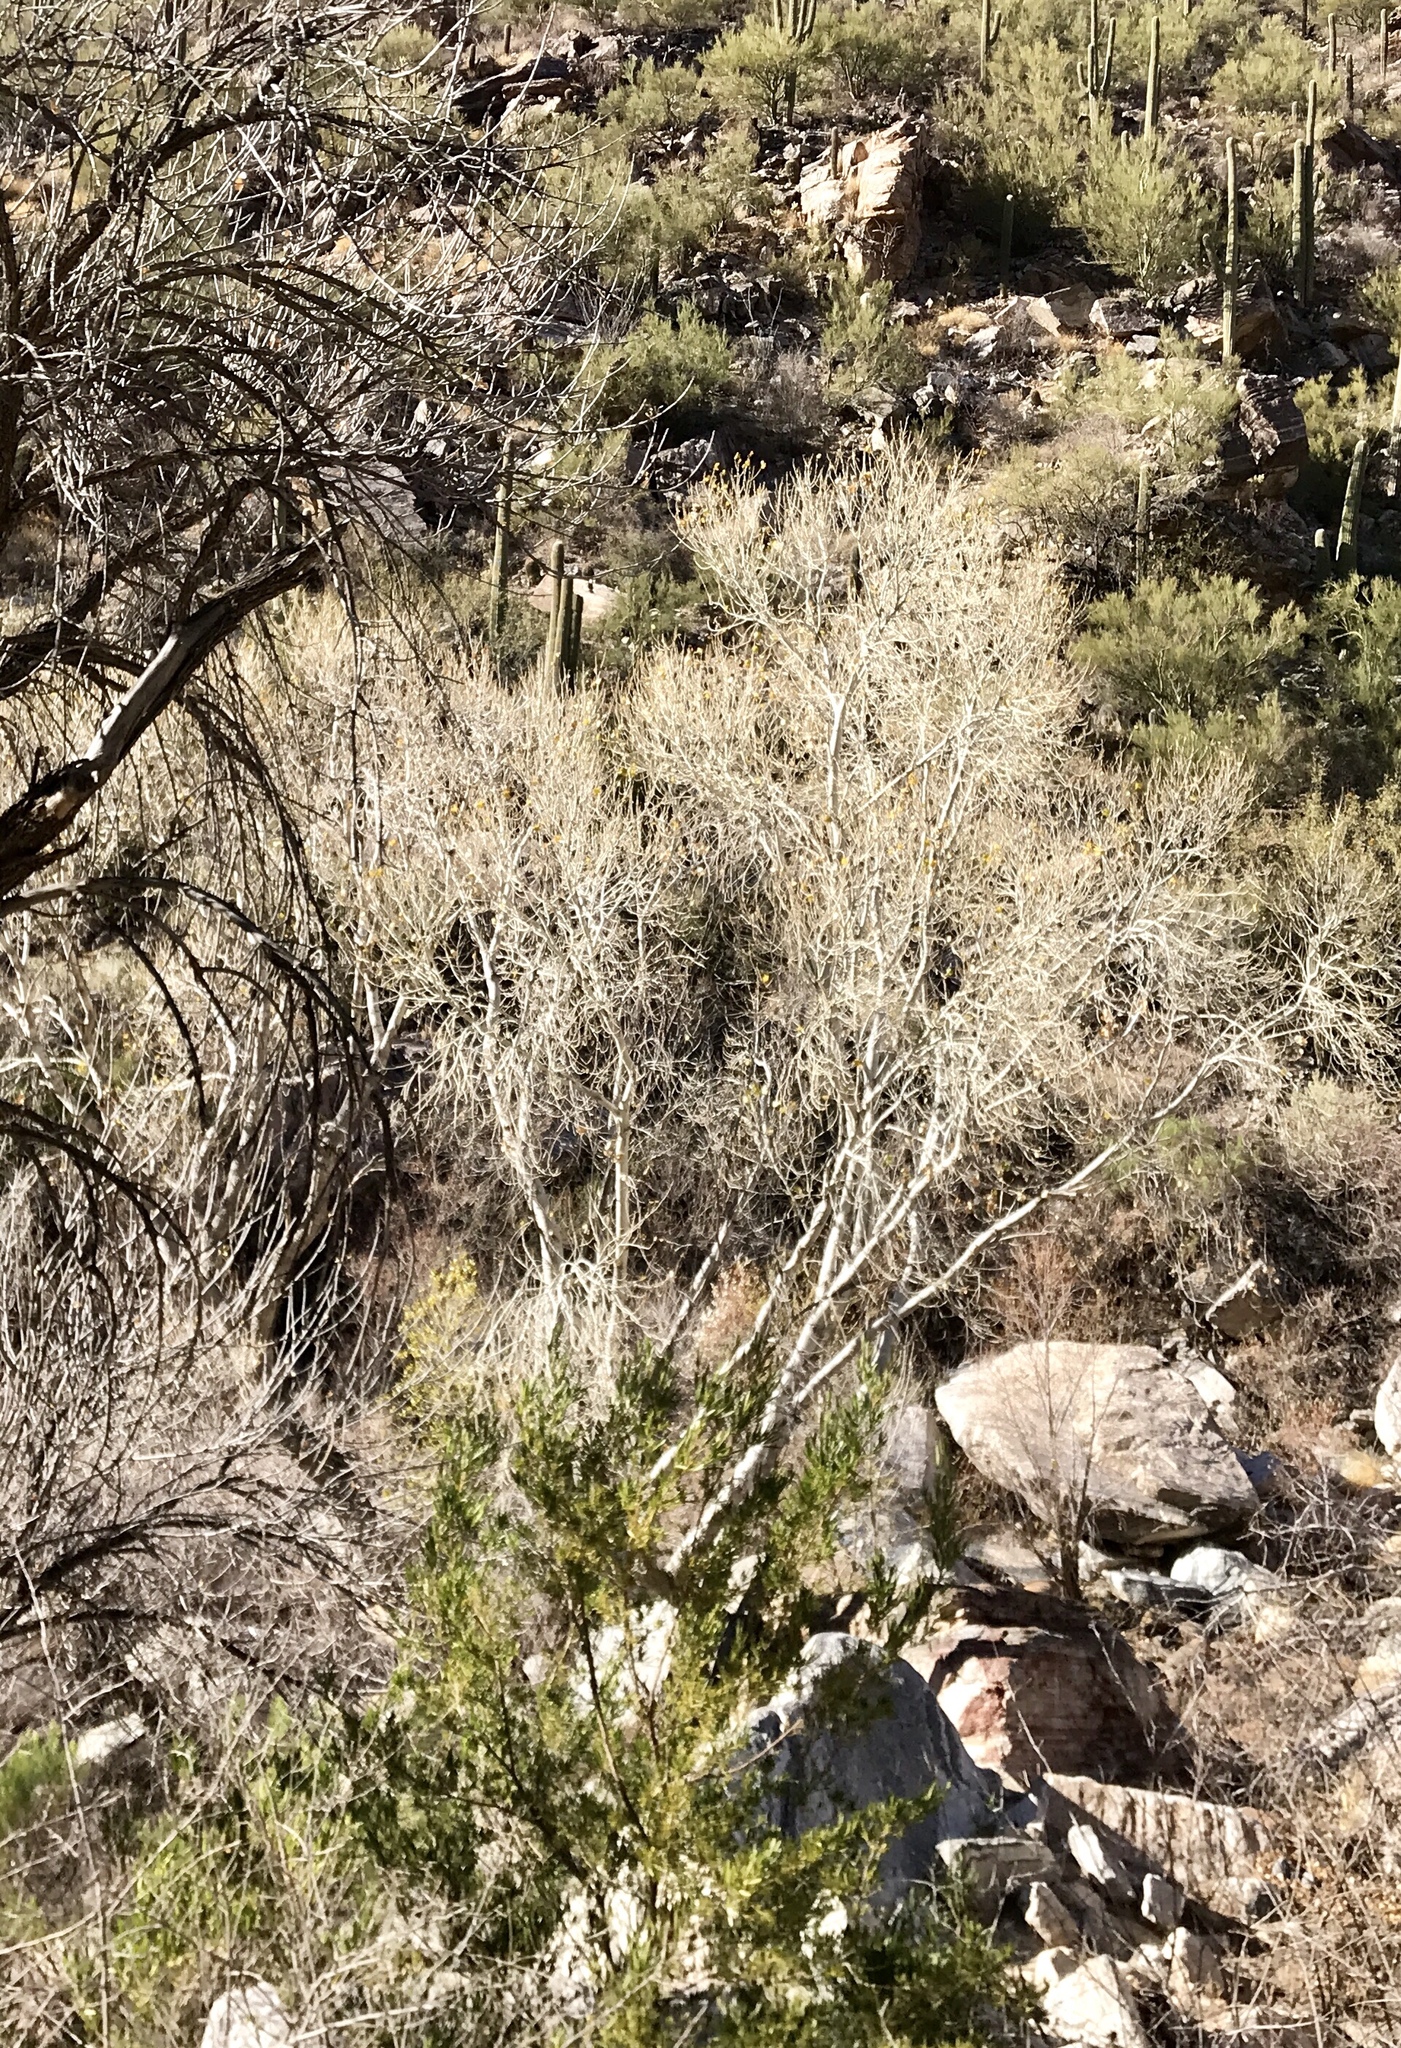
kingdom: Plantae
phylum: Tracheophyta
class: Magnoliopsida
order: Proteales
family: Platanaceae
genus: Platanus
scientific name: Platanus wrightii
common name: Arizona sycamore
